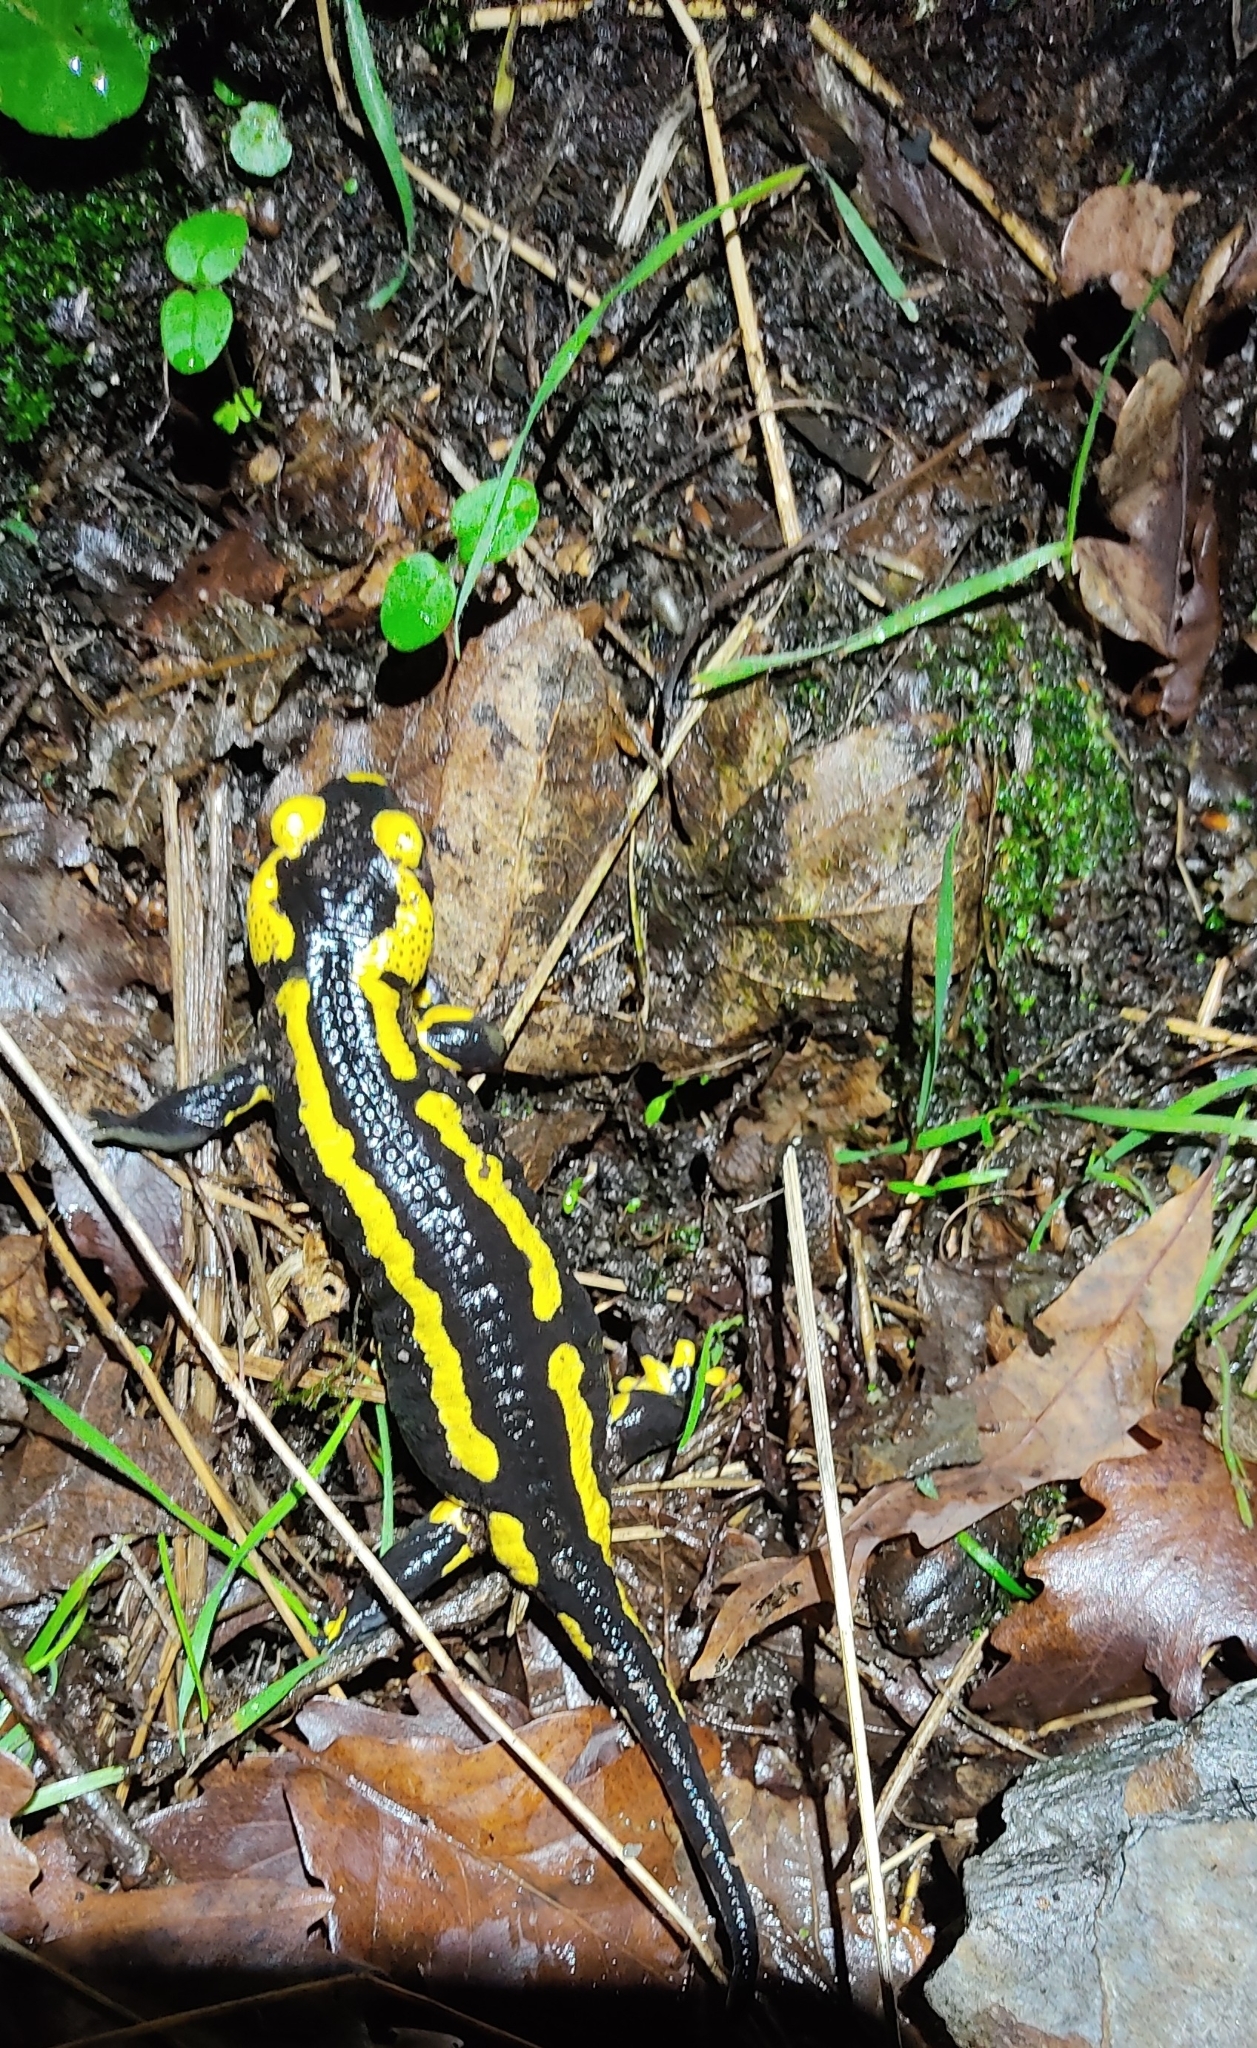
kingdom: Animalia
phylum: Chordata
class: Amphibia
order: Caudata
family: Salamandridae
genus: Salamandra
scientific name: Salamandra salamandra
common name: Fire salamander
